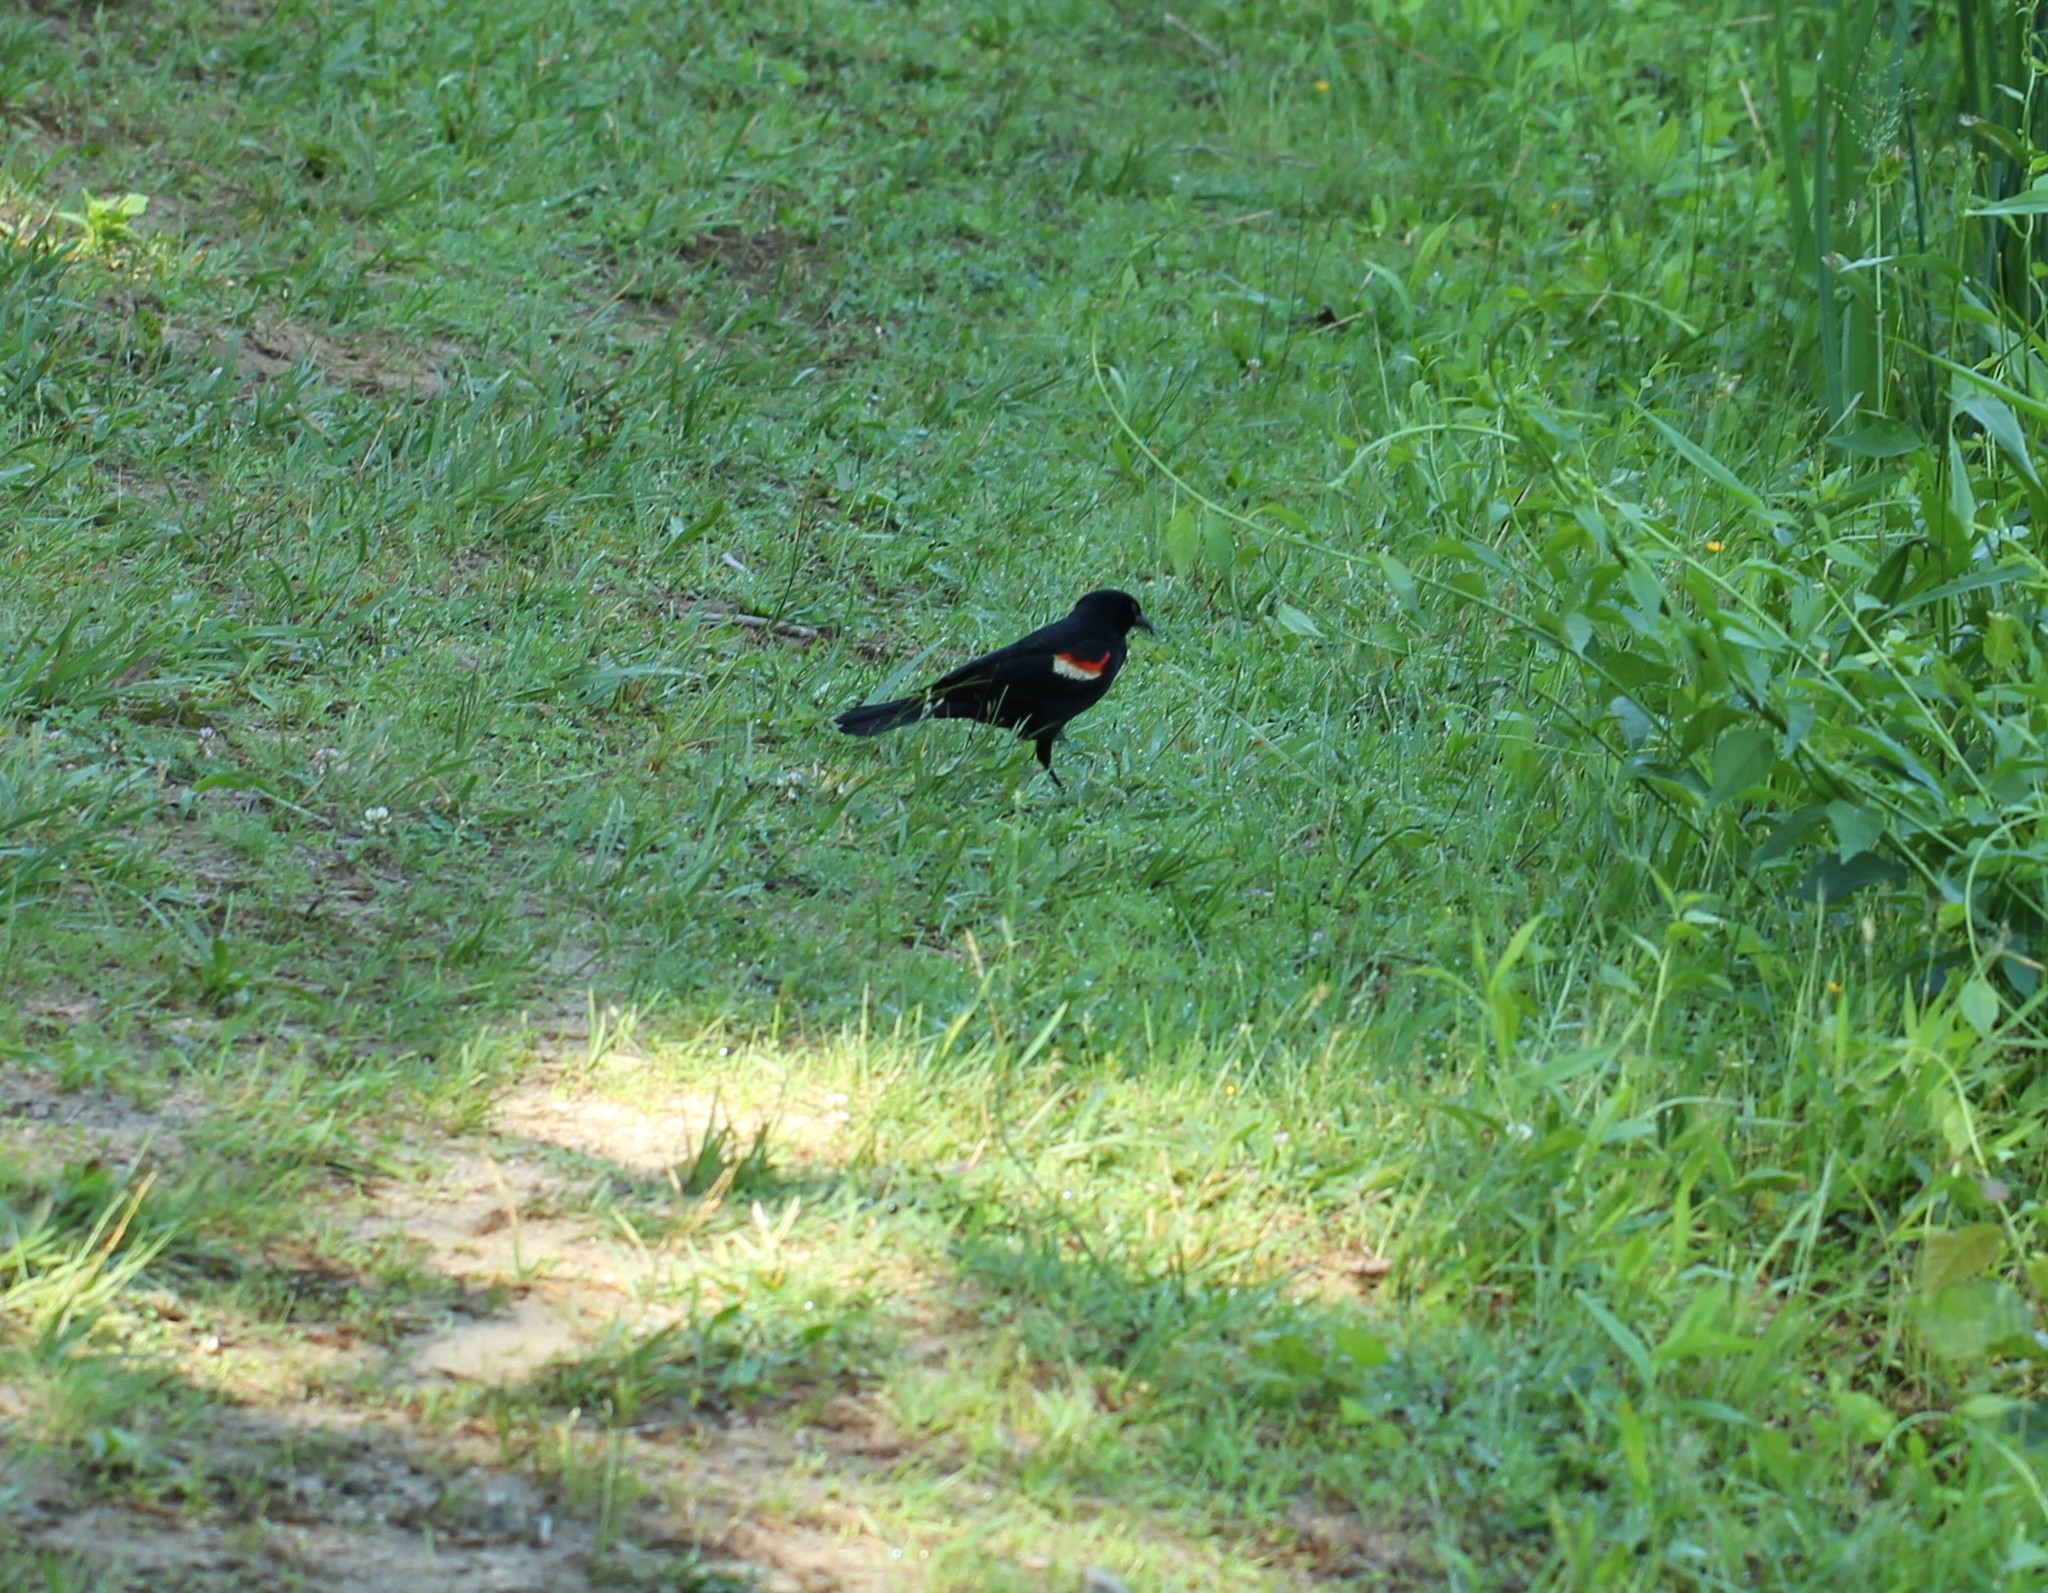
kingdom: Animalia
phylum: Chordata
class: Aves
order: Passeriformes
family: Icteridae
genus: Agelaius
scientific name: Agelaius phoeniceus
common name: Red-winged blackbird
